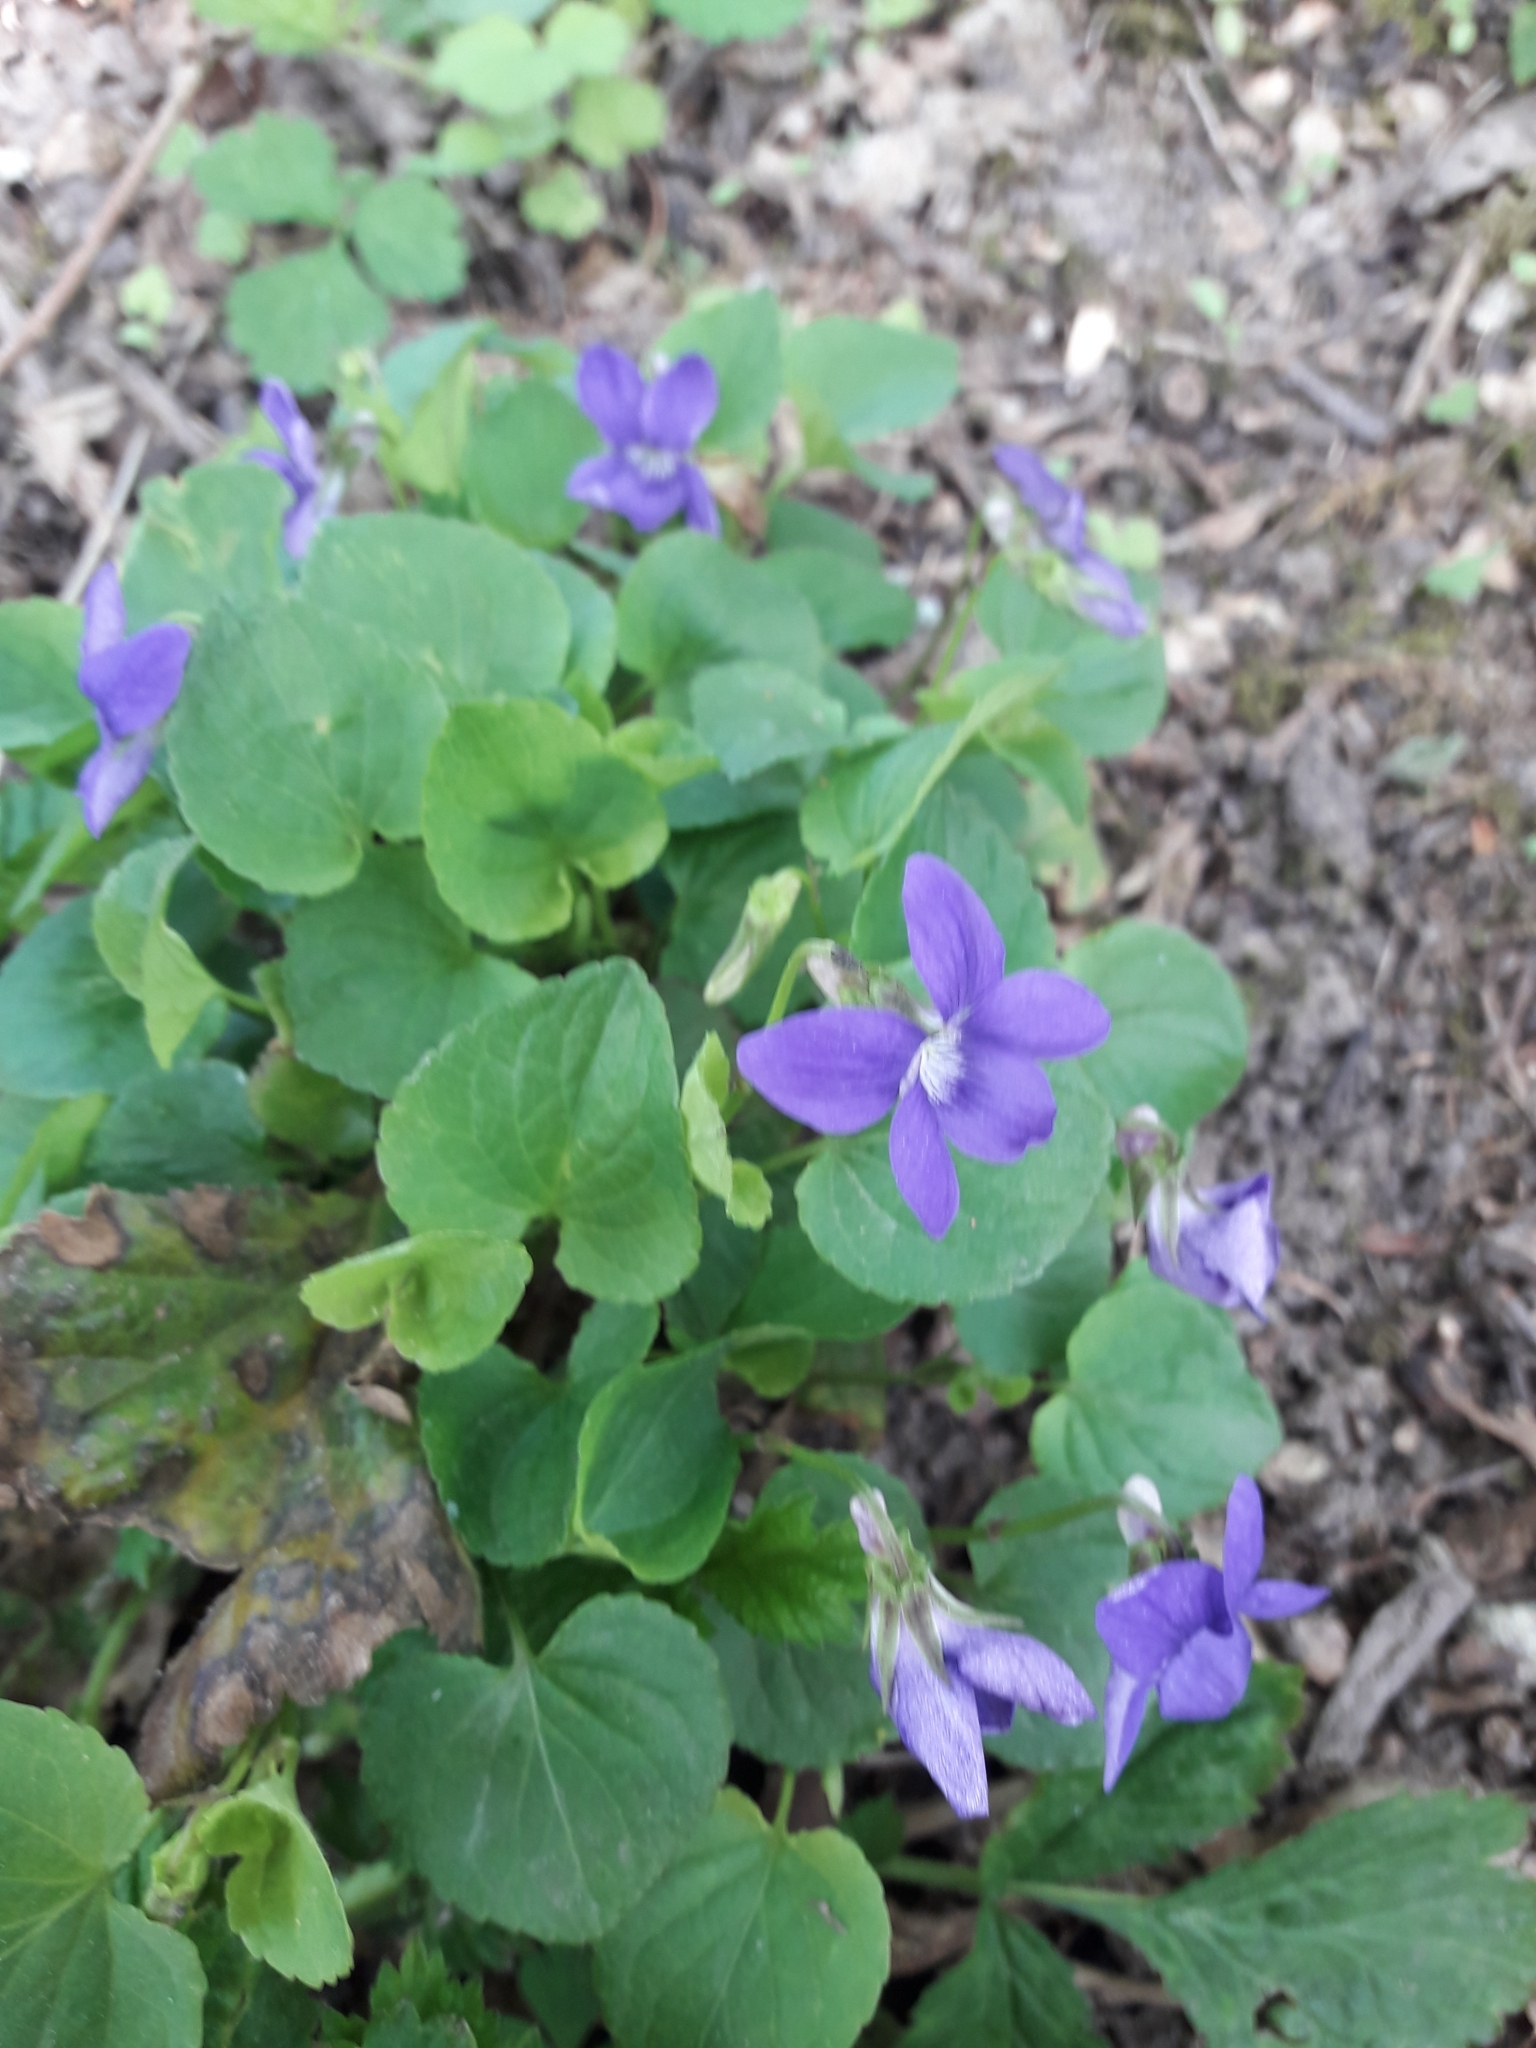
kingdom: Plantae
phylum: Tracheophyta
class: Magnoliopsida
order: Malpighiales
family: Violaceae
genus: Viola
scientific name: Viola riviniana
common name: Common dog-violet
